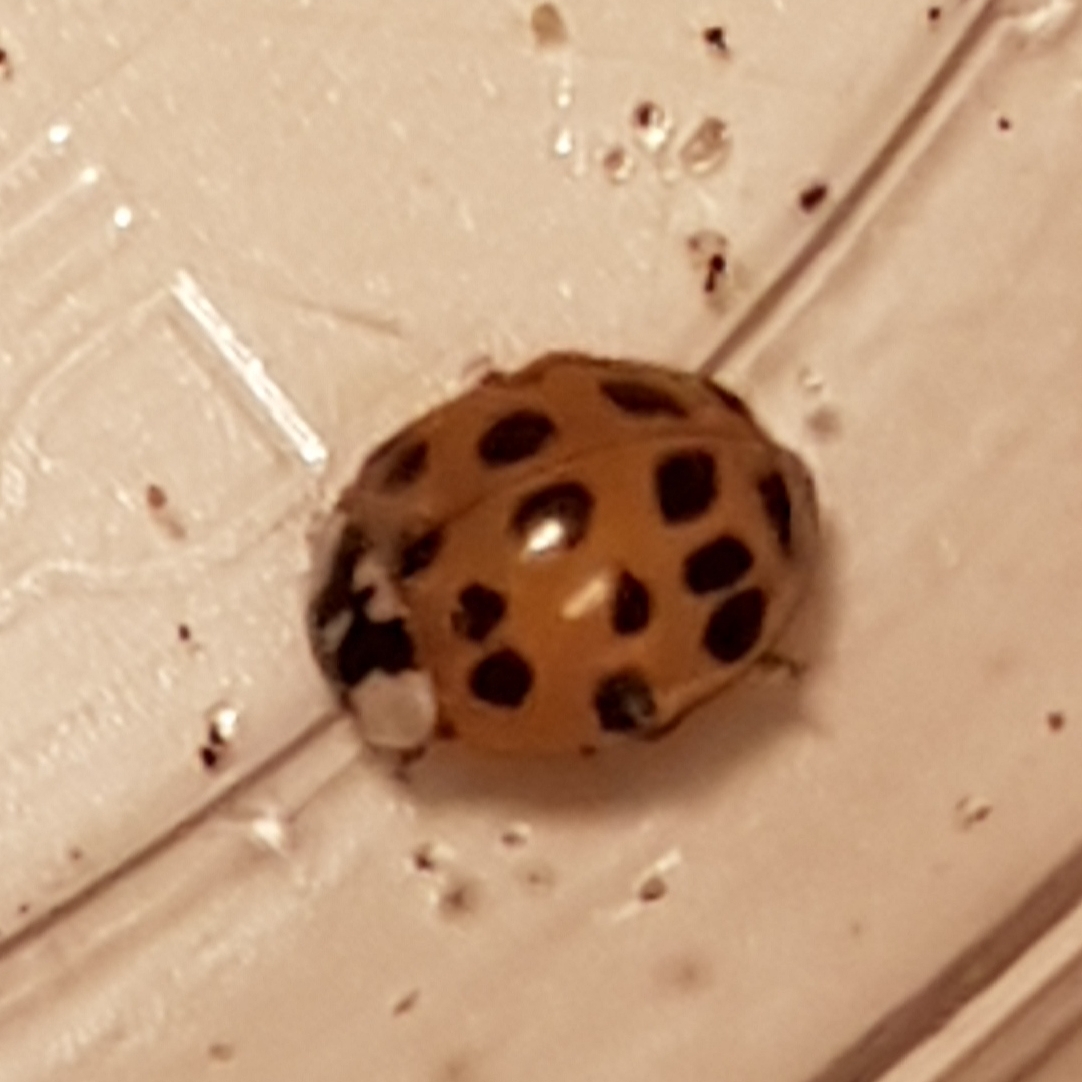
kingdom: Animalia
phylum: Arthropoda
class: Insecta
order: Coleoptera
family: Coccinellidae
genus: Harmonia
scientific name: Harmonia axyridis
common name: Harlequin ladybird
